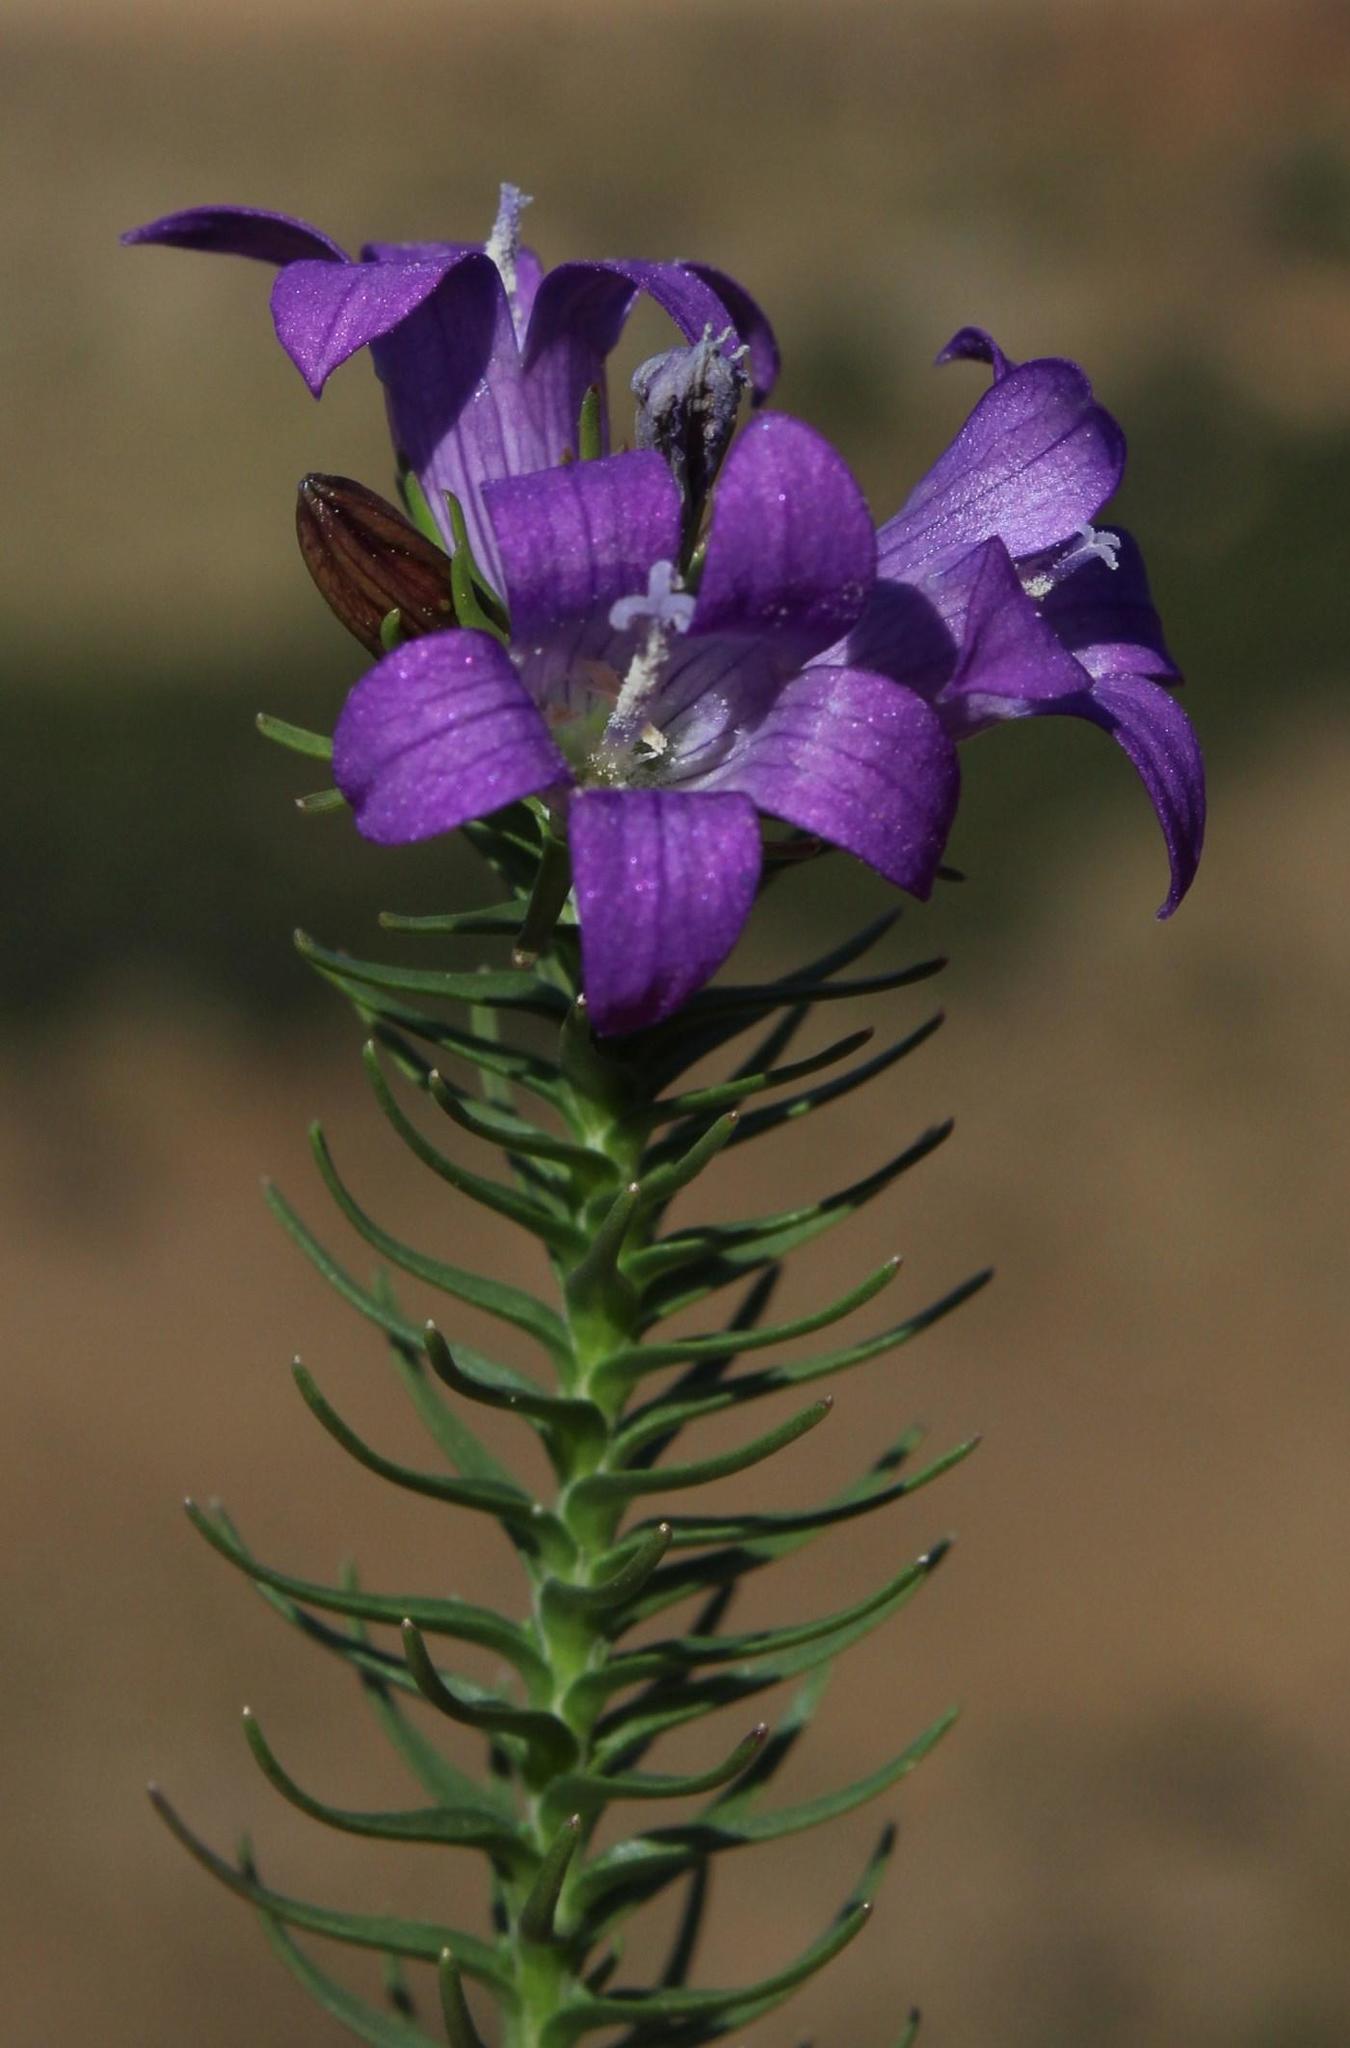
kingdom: Plantae
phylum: Tracheophyta
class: Magnoliopsida
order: Asterales
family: Campanulaceae
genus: Wahlenbergia
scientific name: Wahlenbergia fasciculata
